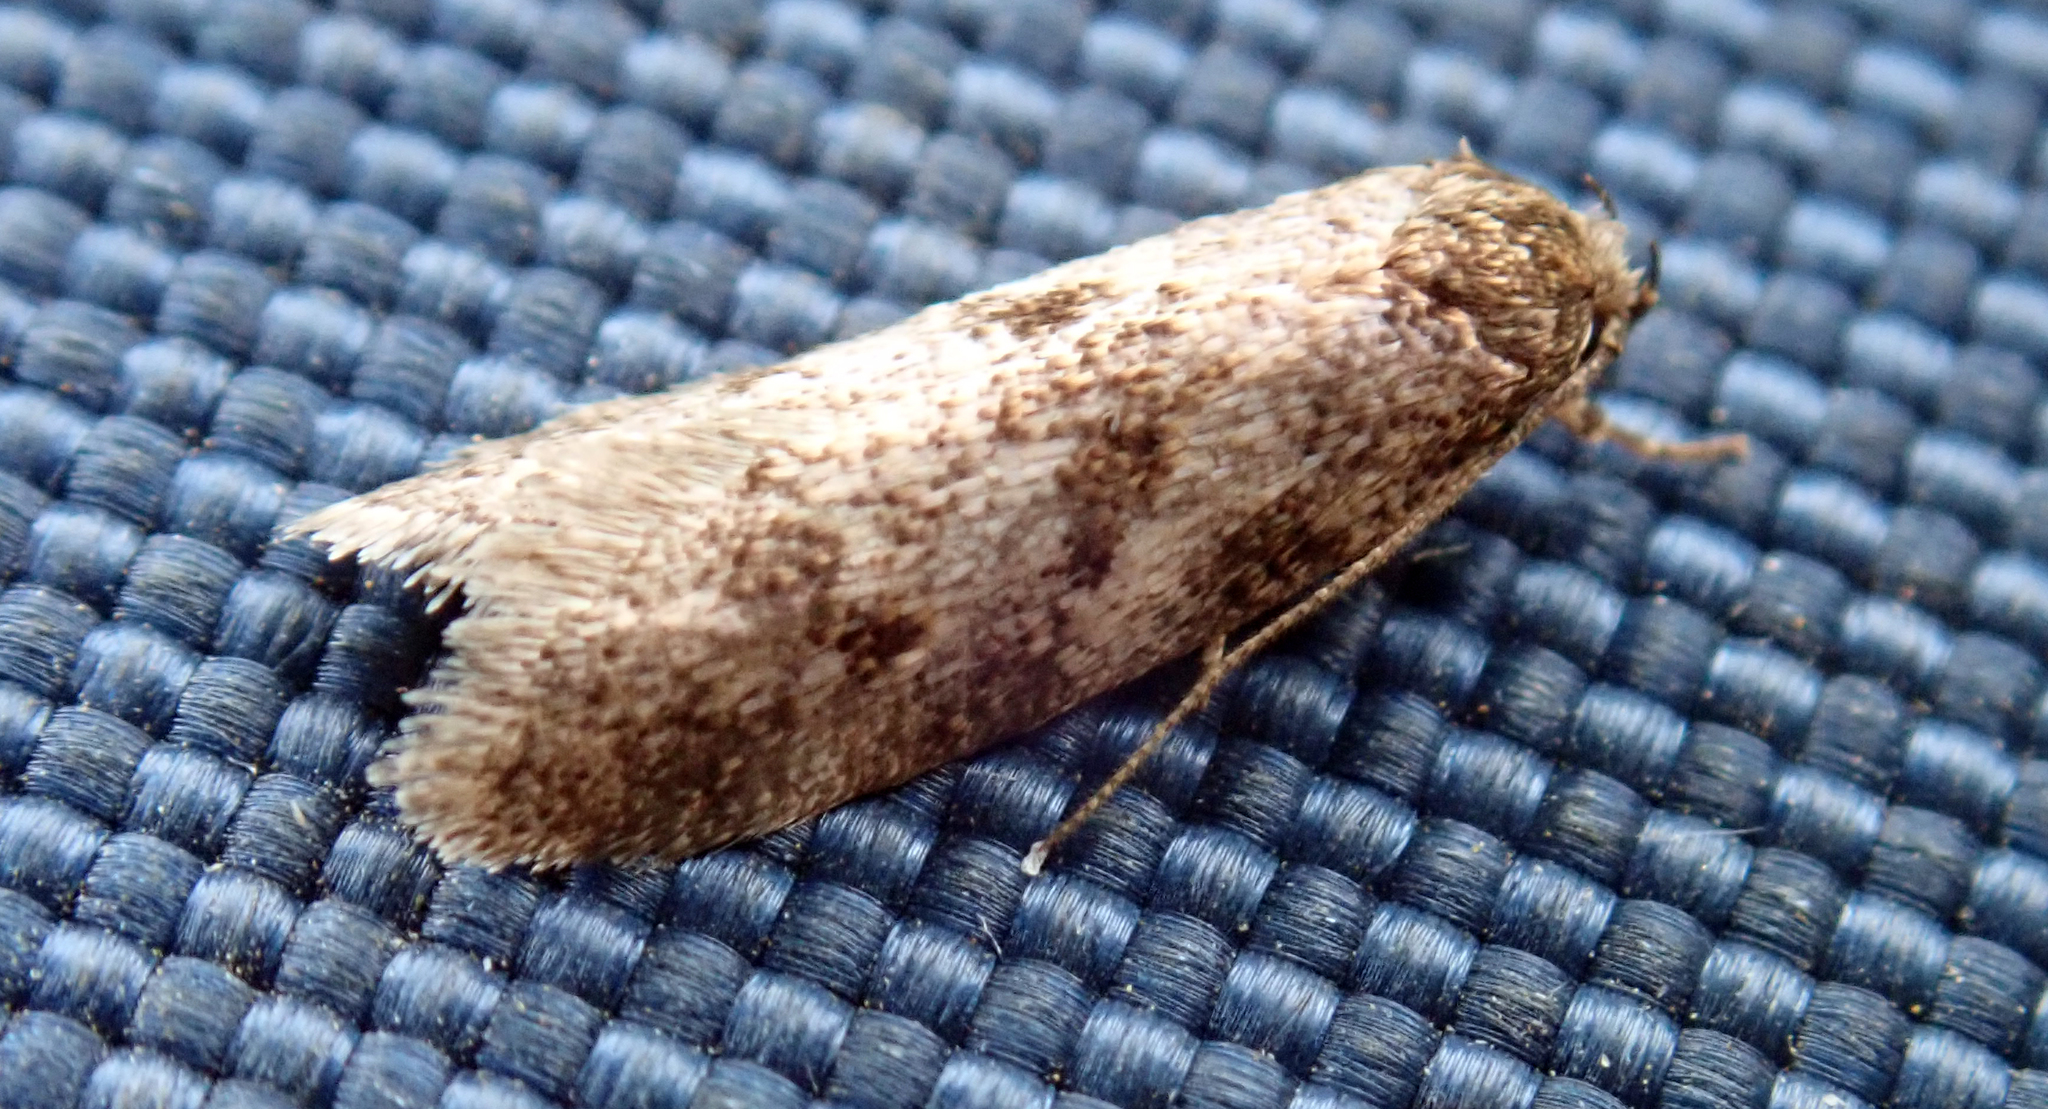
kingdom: Animalia
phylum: Arthropoda
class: Insecta
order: Lepidoptera
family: Oecophoridae
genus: Tingena
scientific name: Tingena clarkei
